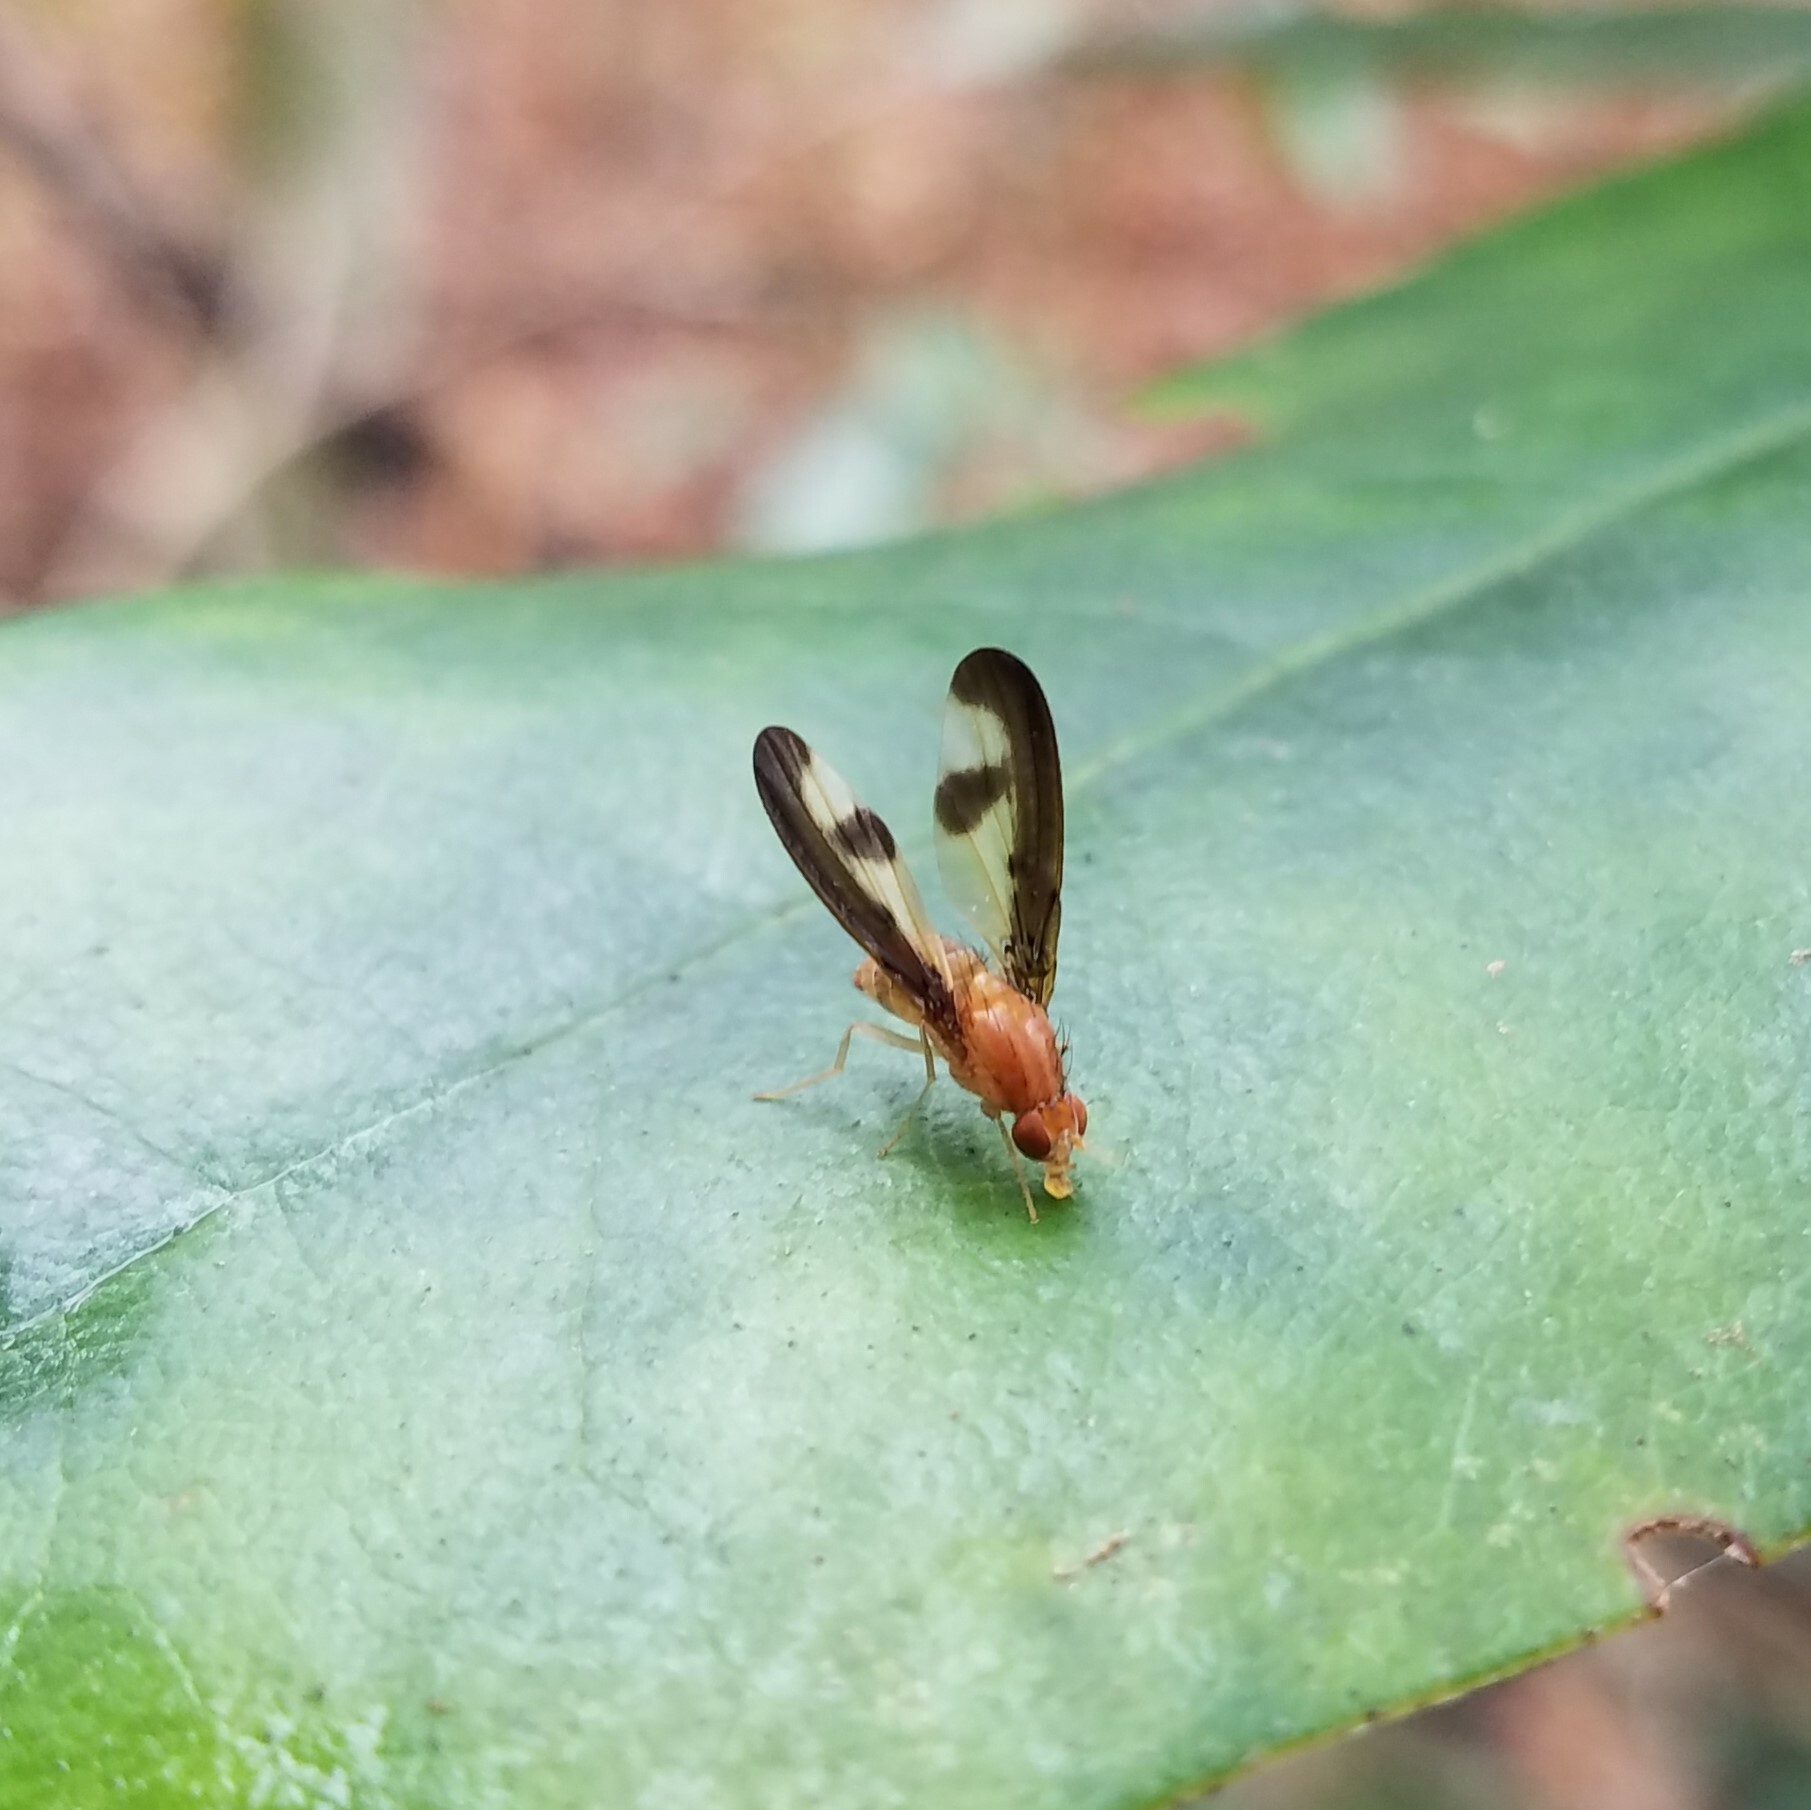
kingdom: Animalia
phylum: Arthropoda
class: Insecta
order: Diptera
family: Pallopteridae
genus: Toxonevra
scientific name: Toxonevra superba
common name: Antlered flutter fly
